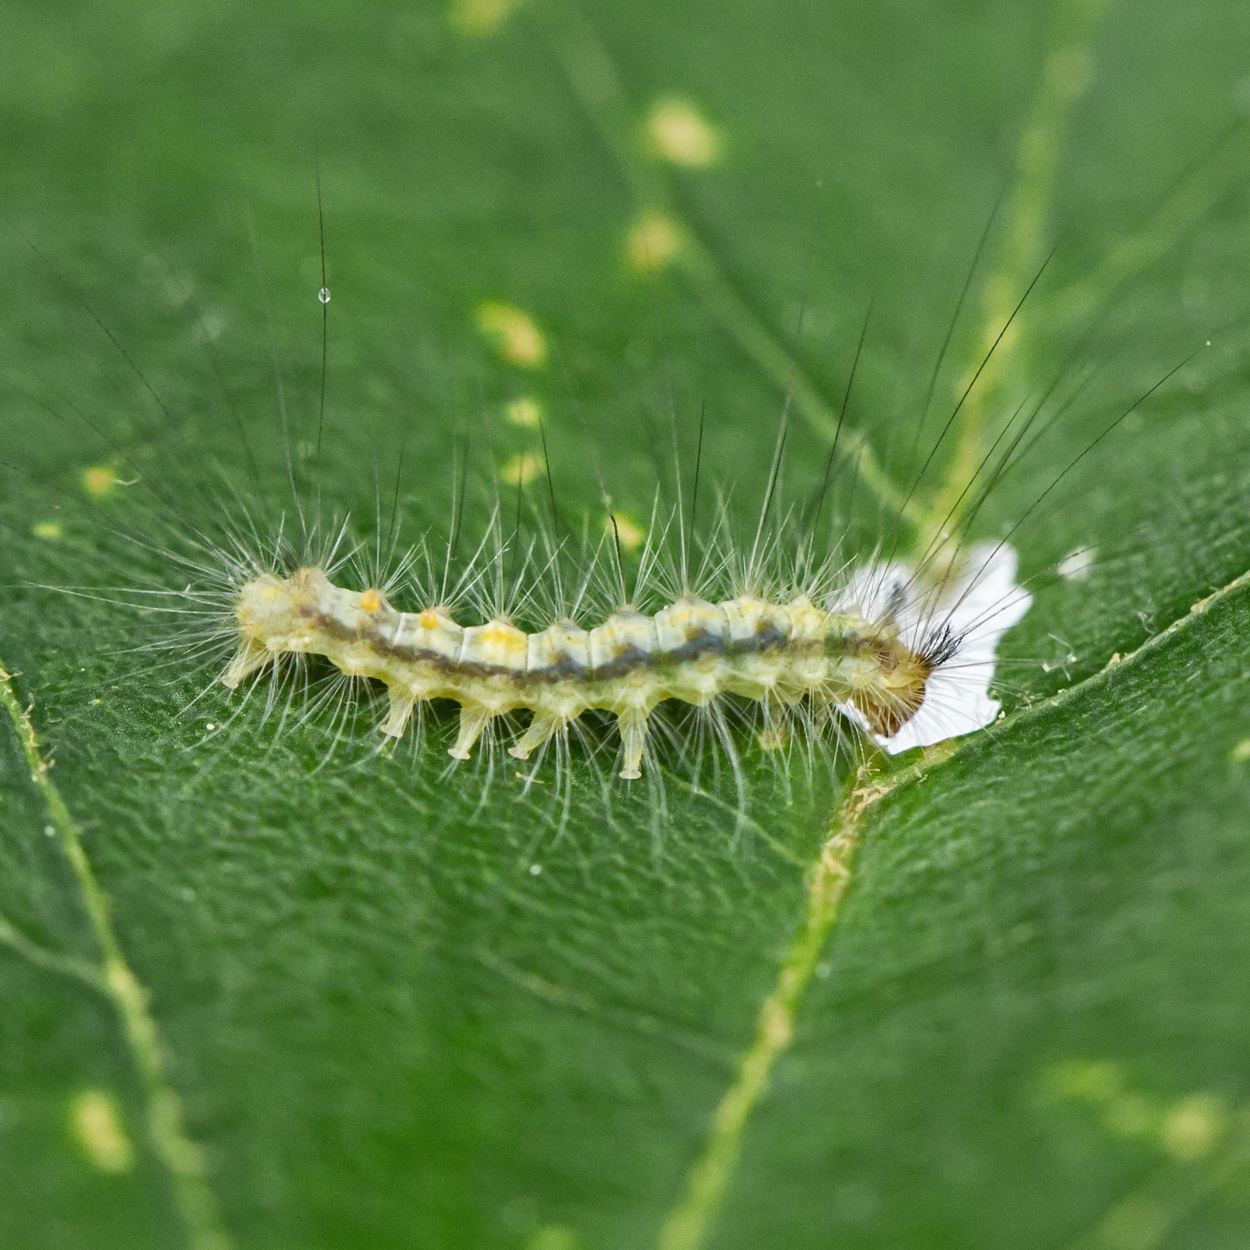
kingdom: Animalia
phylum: Arthropoda
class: Insecta
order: Lepidoptera
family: Erebidae
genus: Orgyia
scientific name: Orgyia leucostigma
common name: White-marked tussock moth
